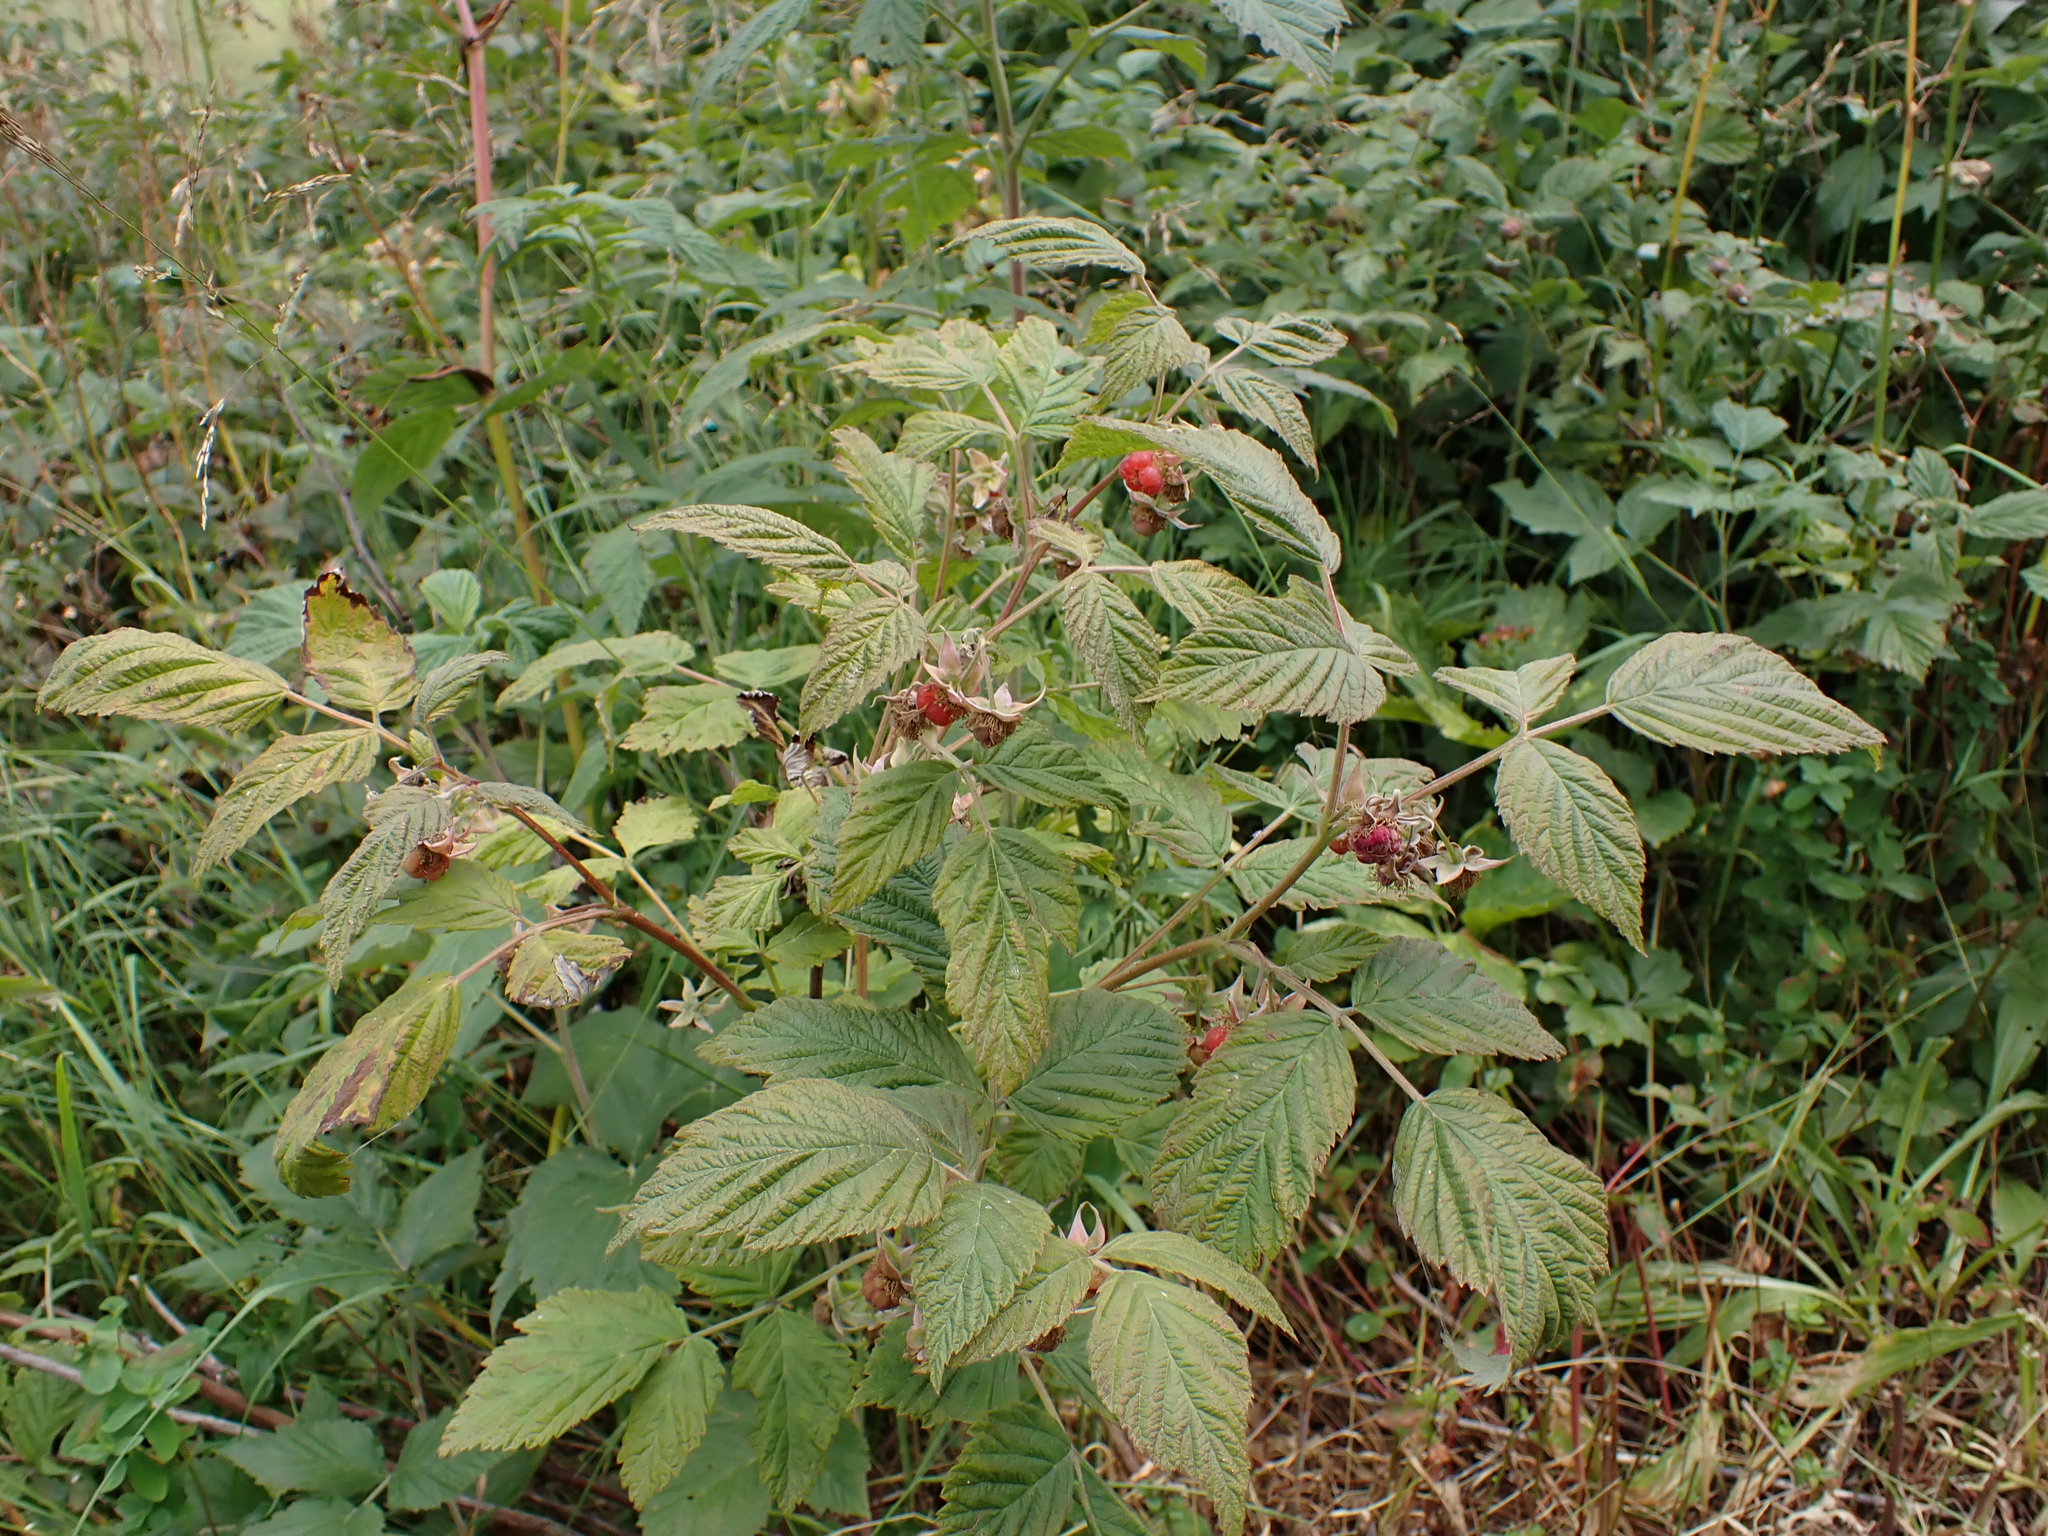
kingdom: Plantae
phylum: Tracheophyta
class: Magnoliopsida
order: Rosales
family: Rosaceae
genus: Rubus
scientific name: Rubus idaeus
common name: Raspberry
